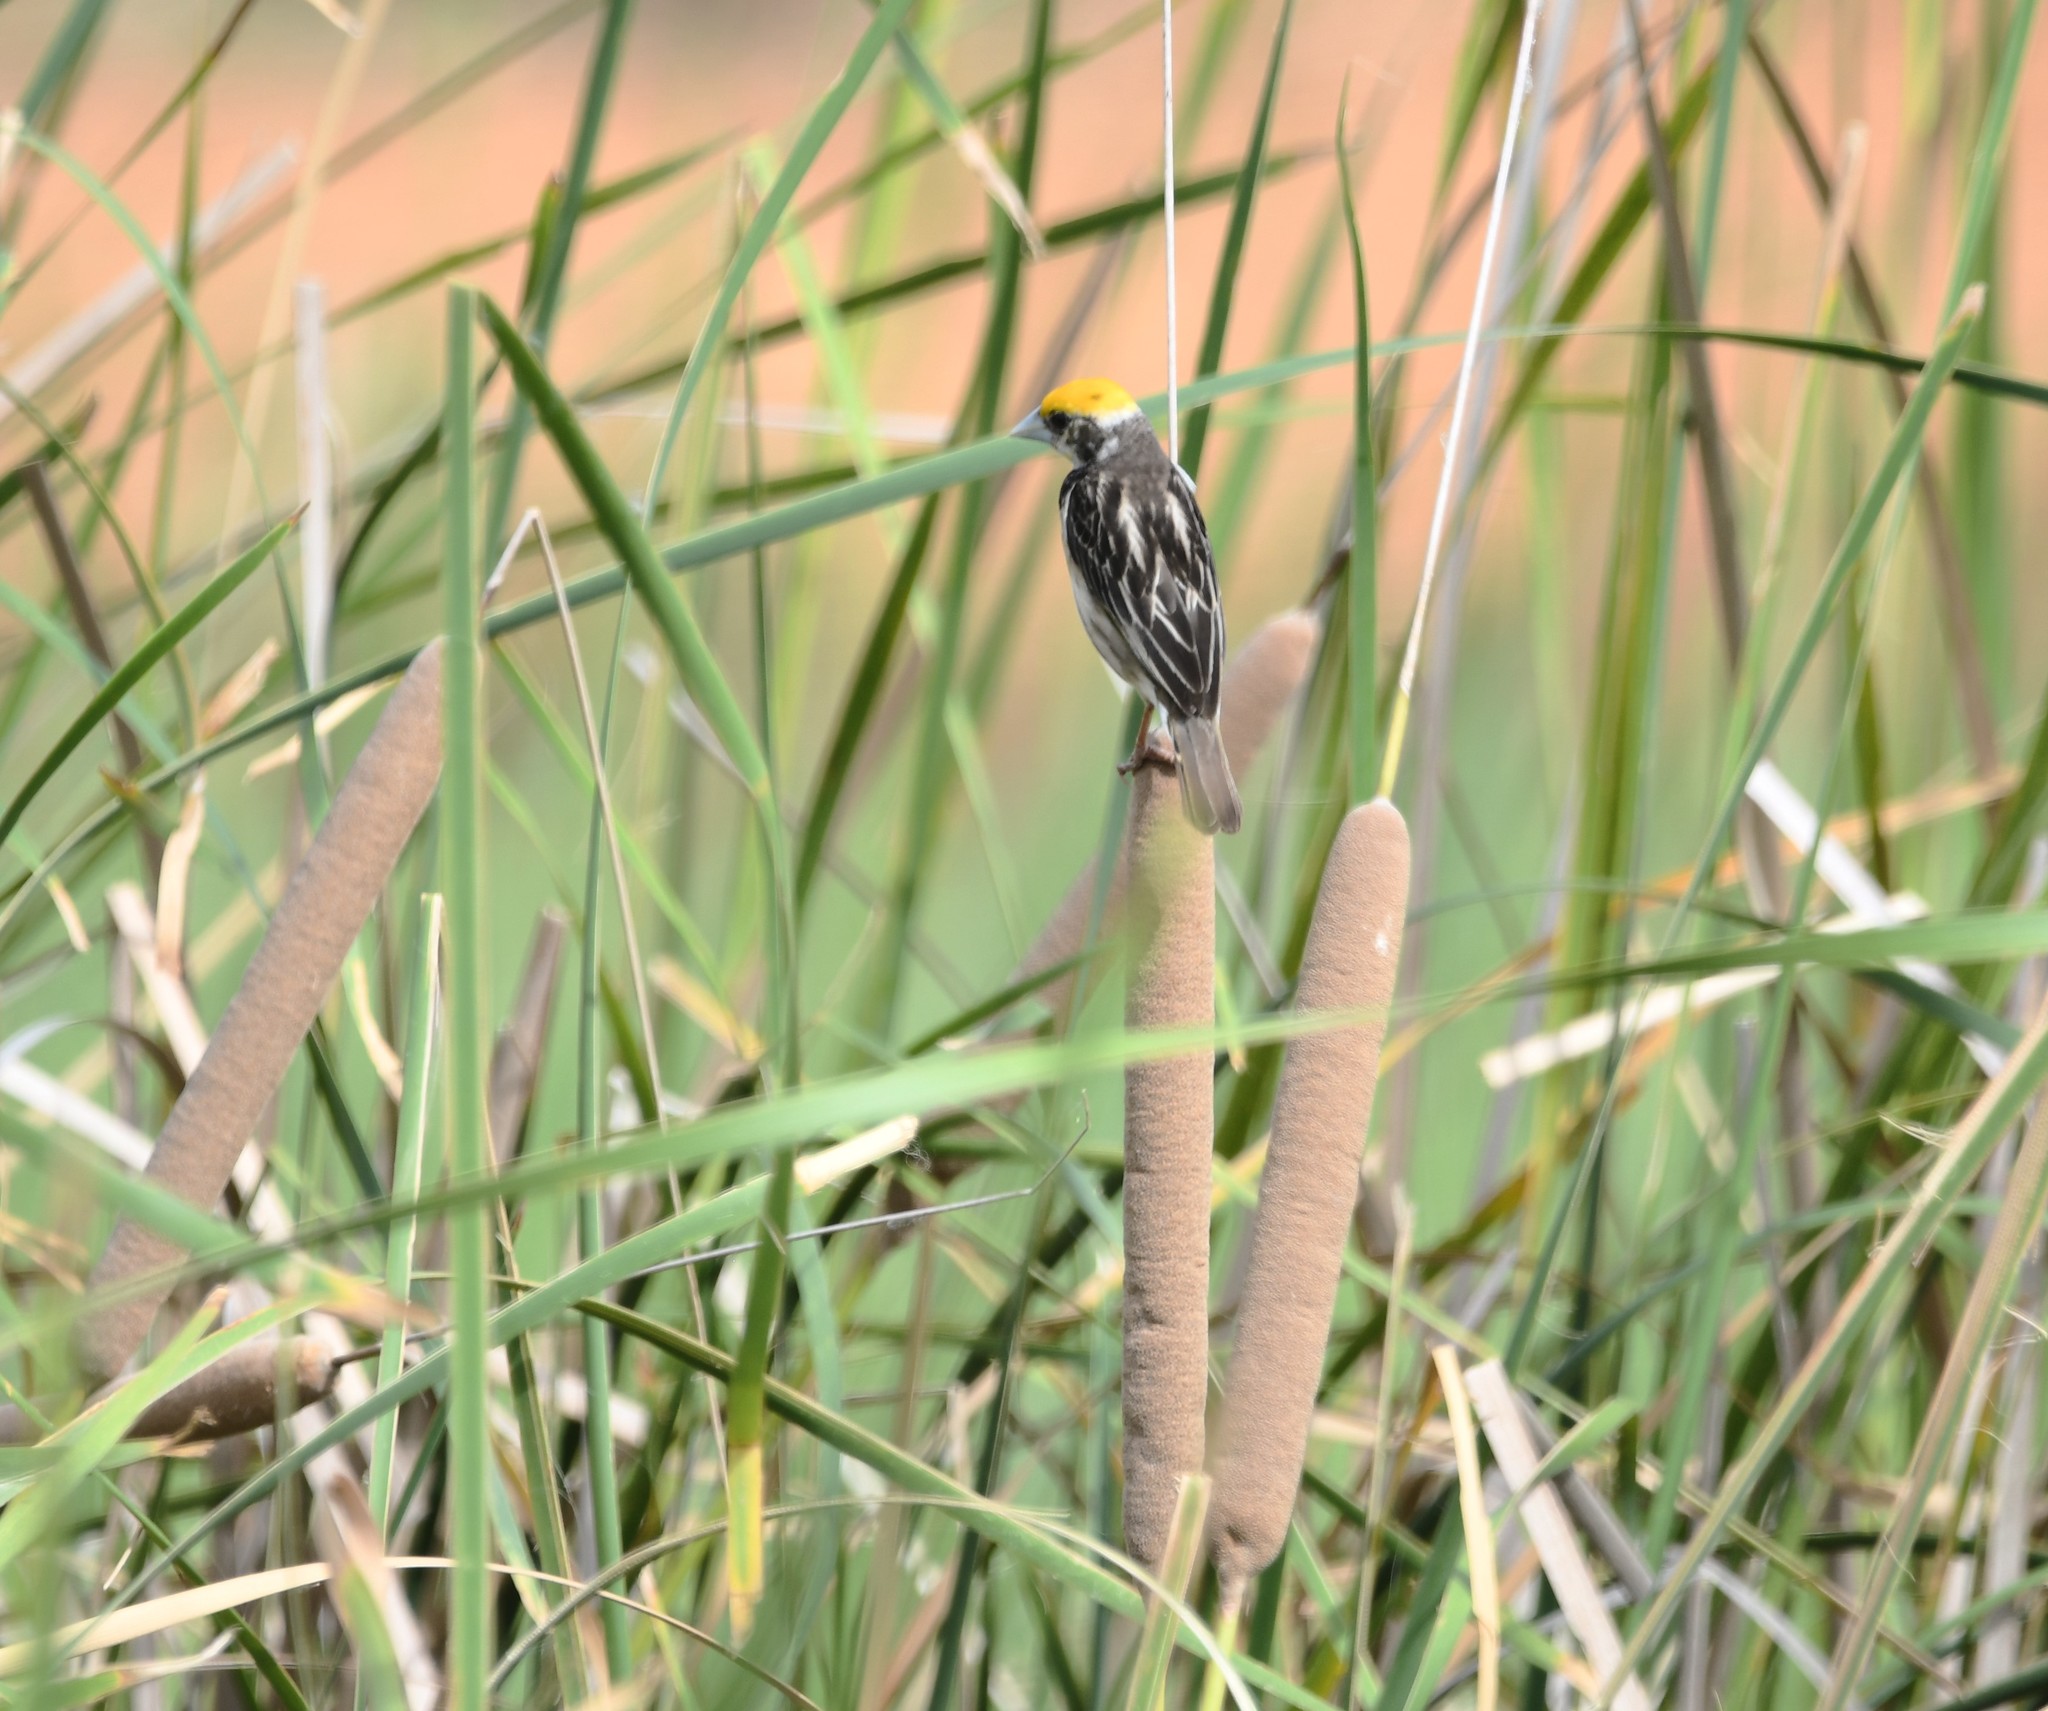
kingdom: Animalia
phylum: Chordata
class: Aves
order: Passeriformes
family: Ploceidae
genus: Ploceus
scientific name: Ploceus manyar
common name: Streaked weaver
